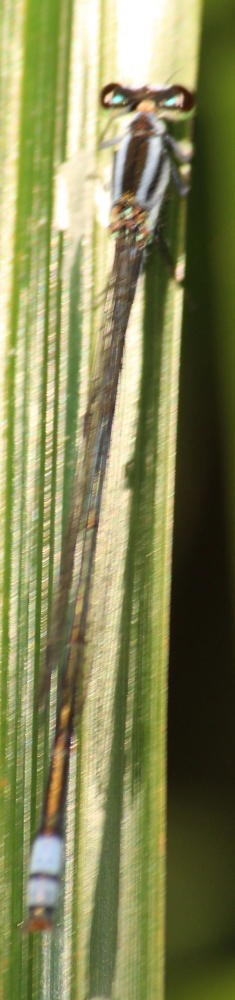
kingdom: Animalia
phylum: Arthropoda
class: Insecta
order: Odonata
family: Coenagrionidae
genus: Pseudagrion
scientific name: Pseudagrion kersteni
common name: Powder-faced sprite
